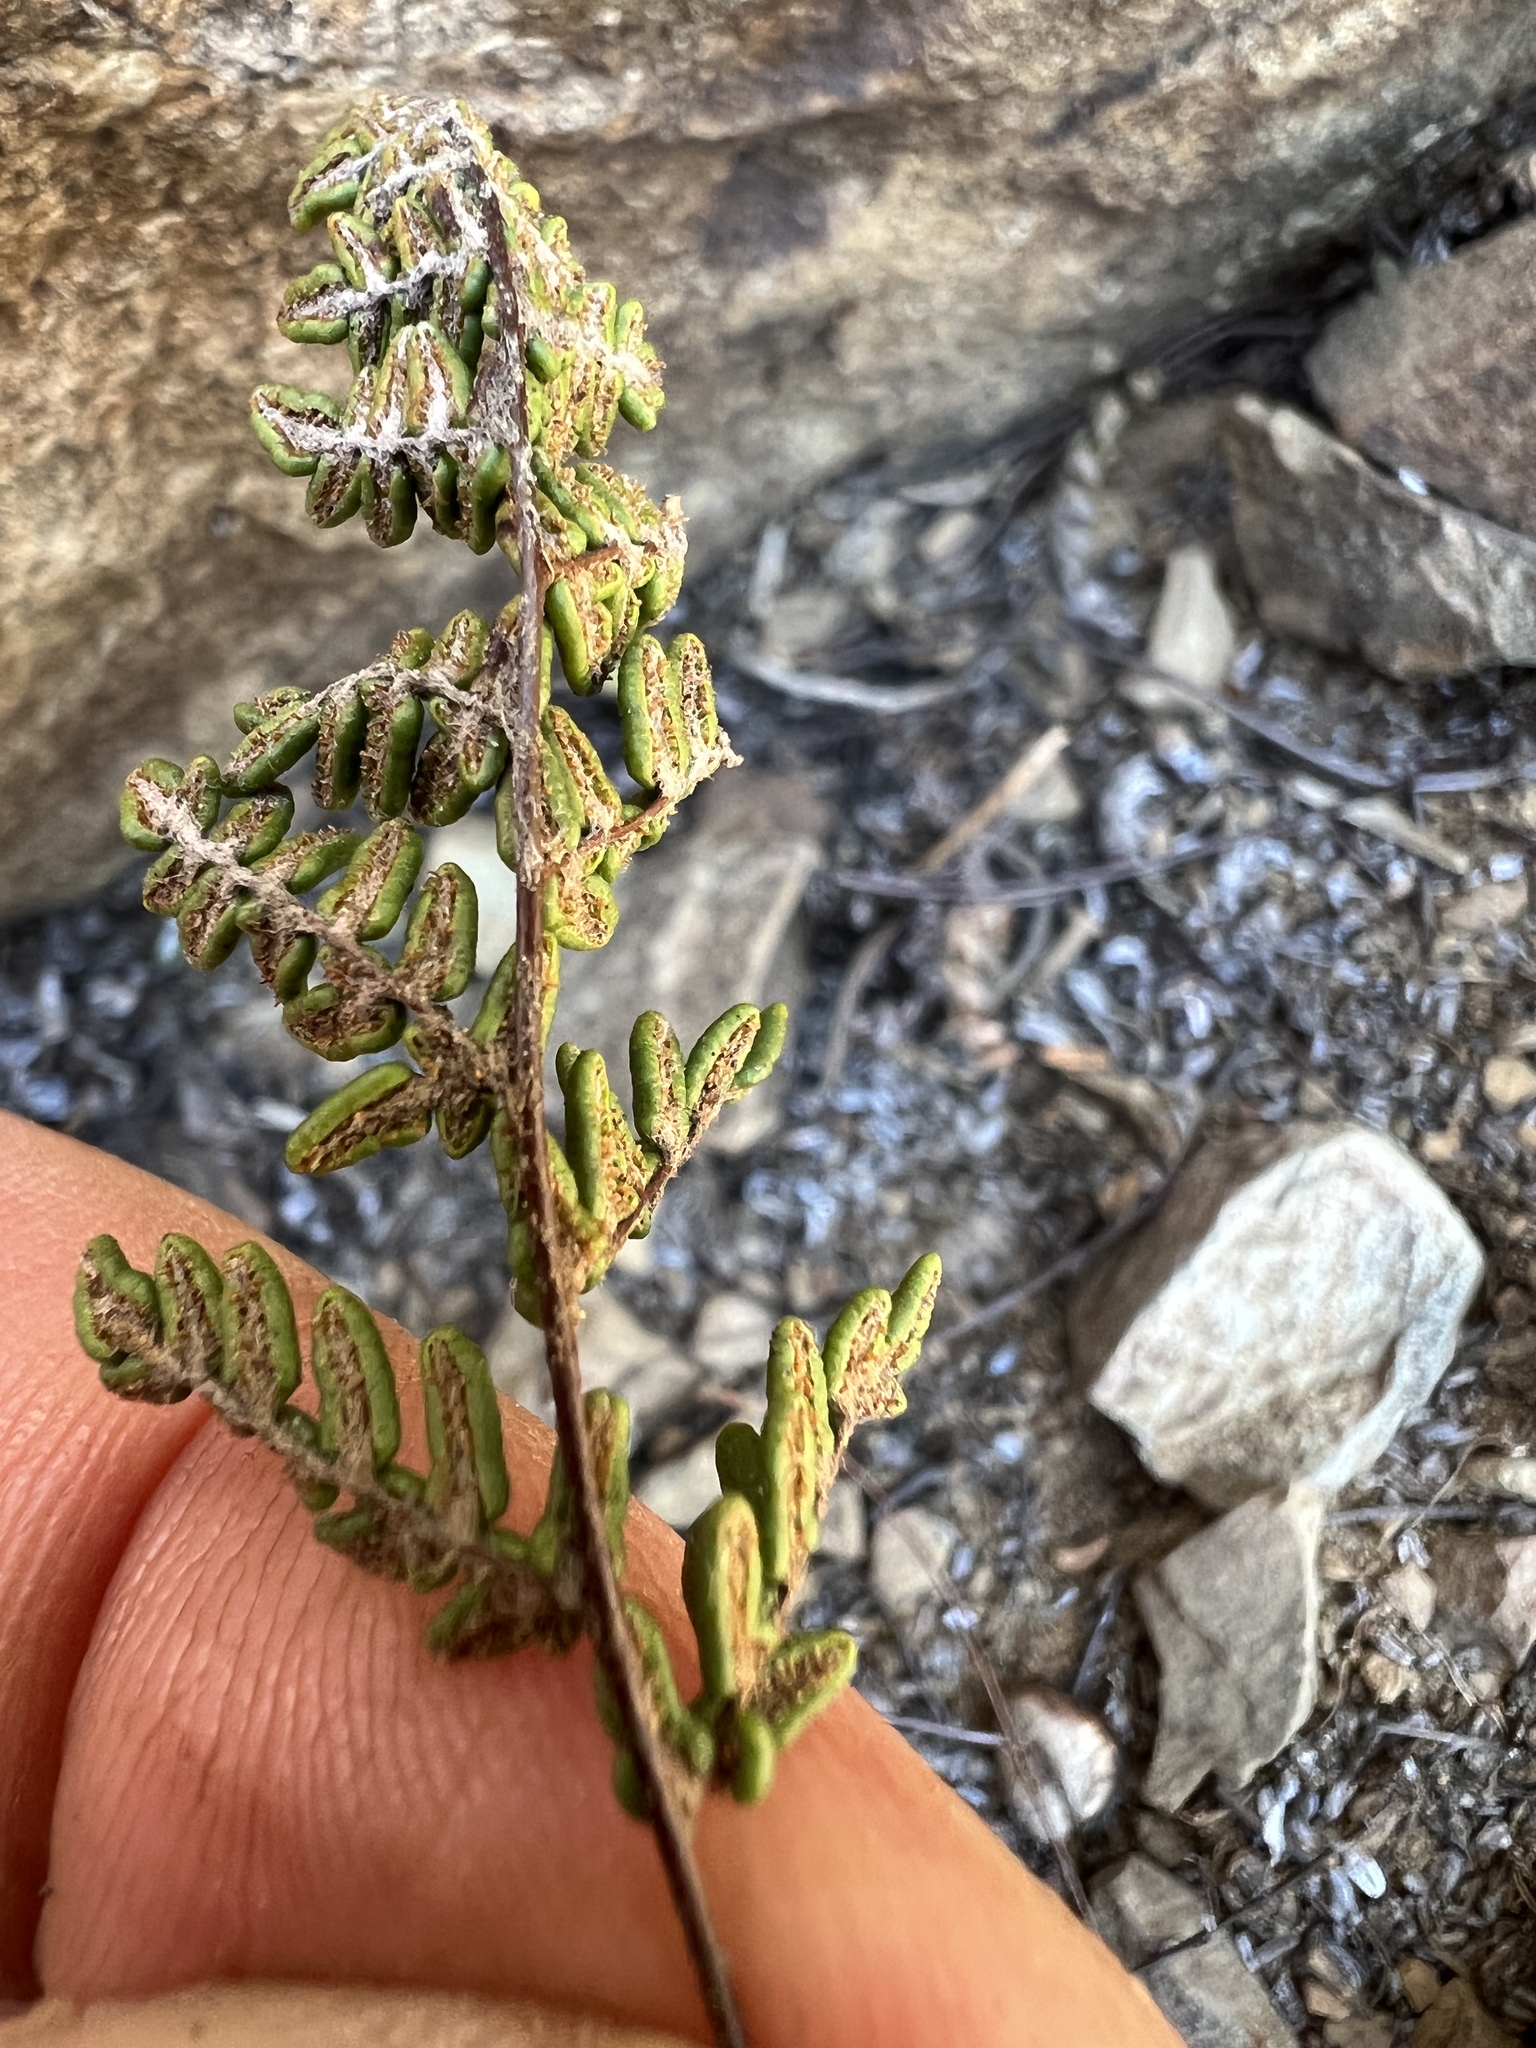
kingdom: Plantae
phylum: Tracheophyta
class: Polypodiopsida
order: Polypodiales
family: Pteridaceae
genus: Myriopteris
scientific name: Myriopteris gracillima
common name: Lace fern
